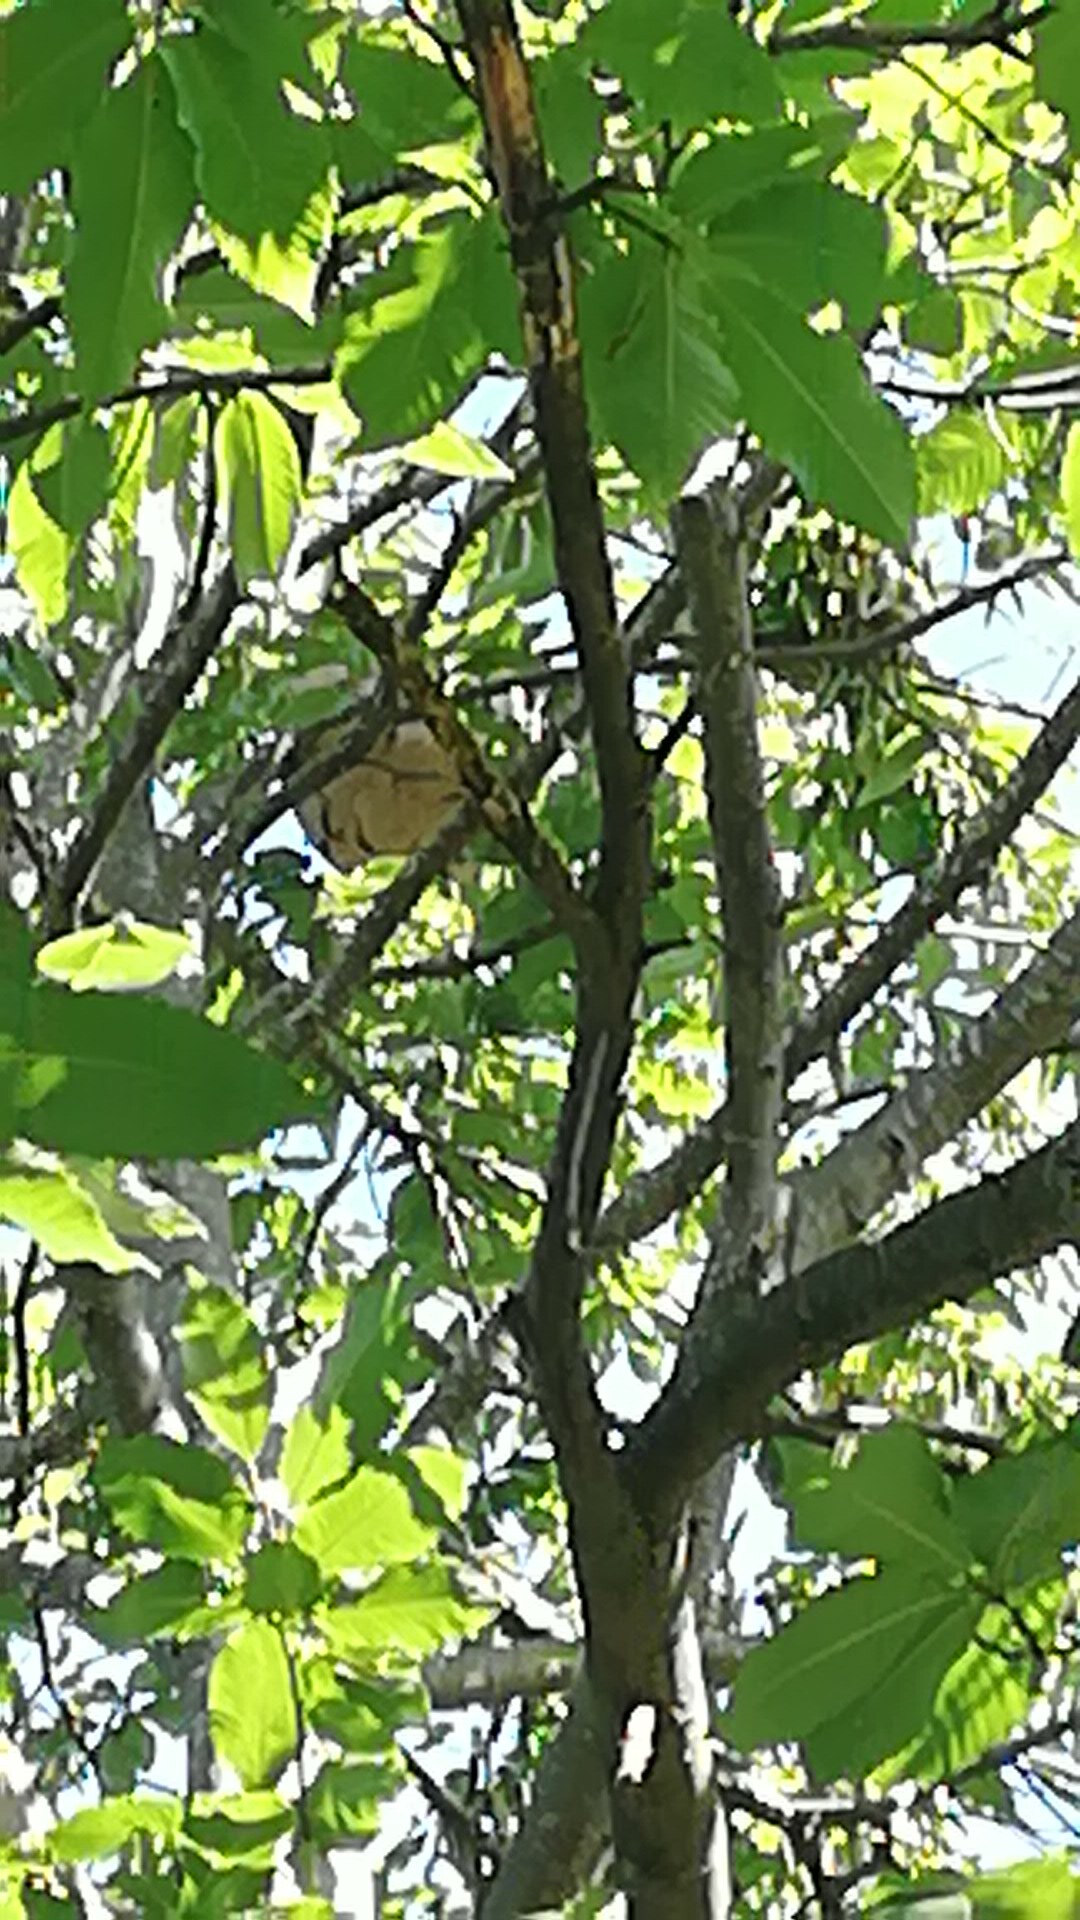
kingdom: Animalia
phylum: Arthropoda
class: Insecta
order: Hymenoptera
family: Vespidae
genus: Vespa
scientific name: Vespa velutina
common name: Asian hornet
